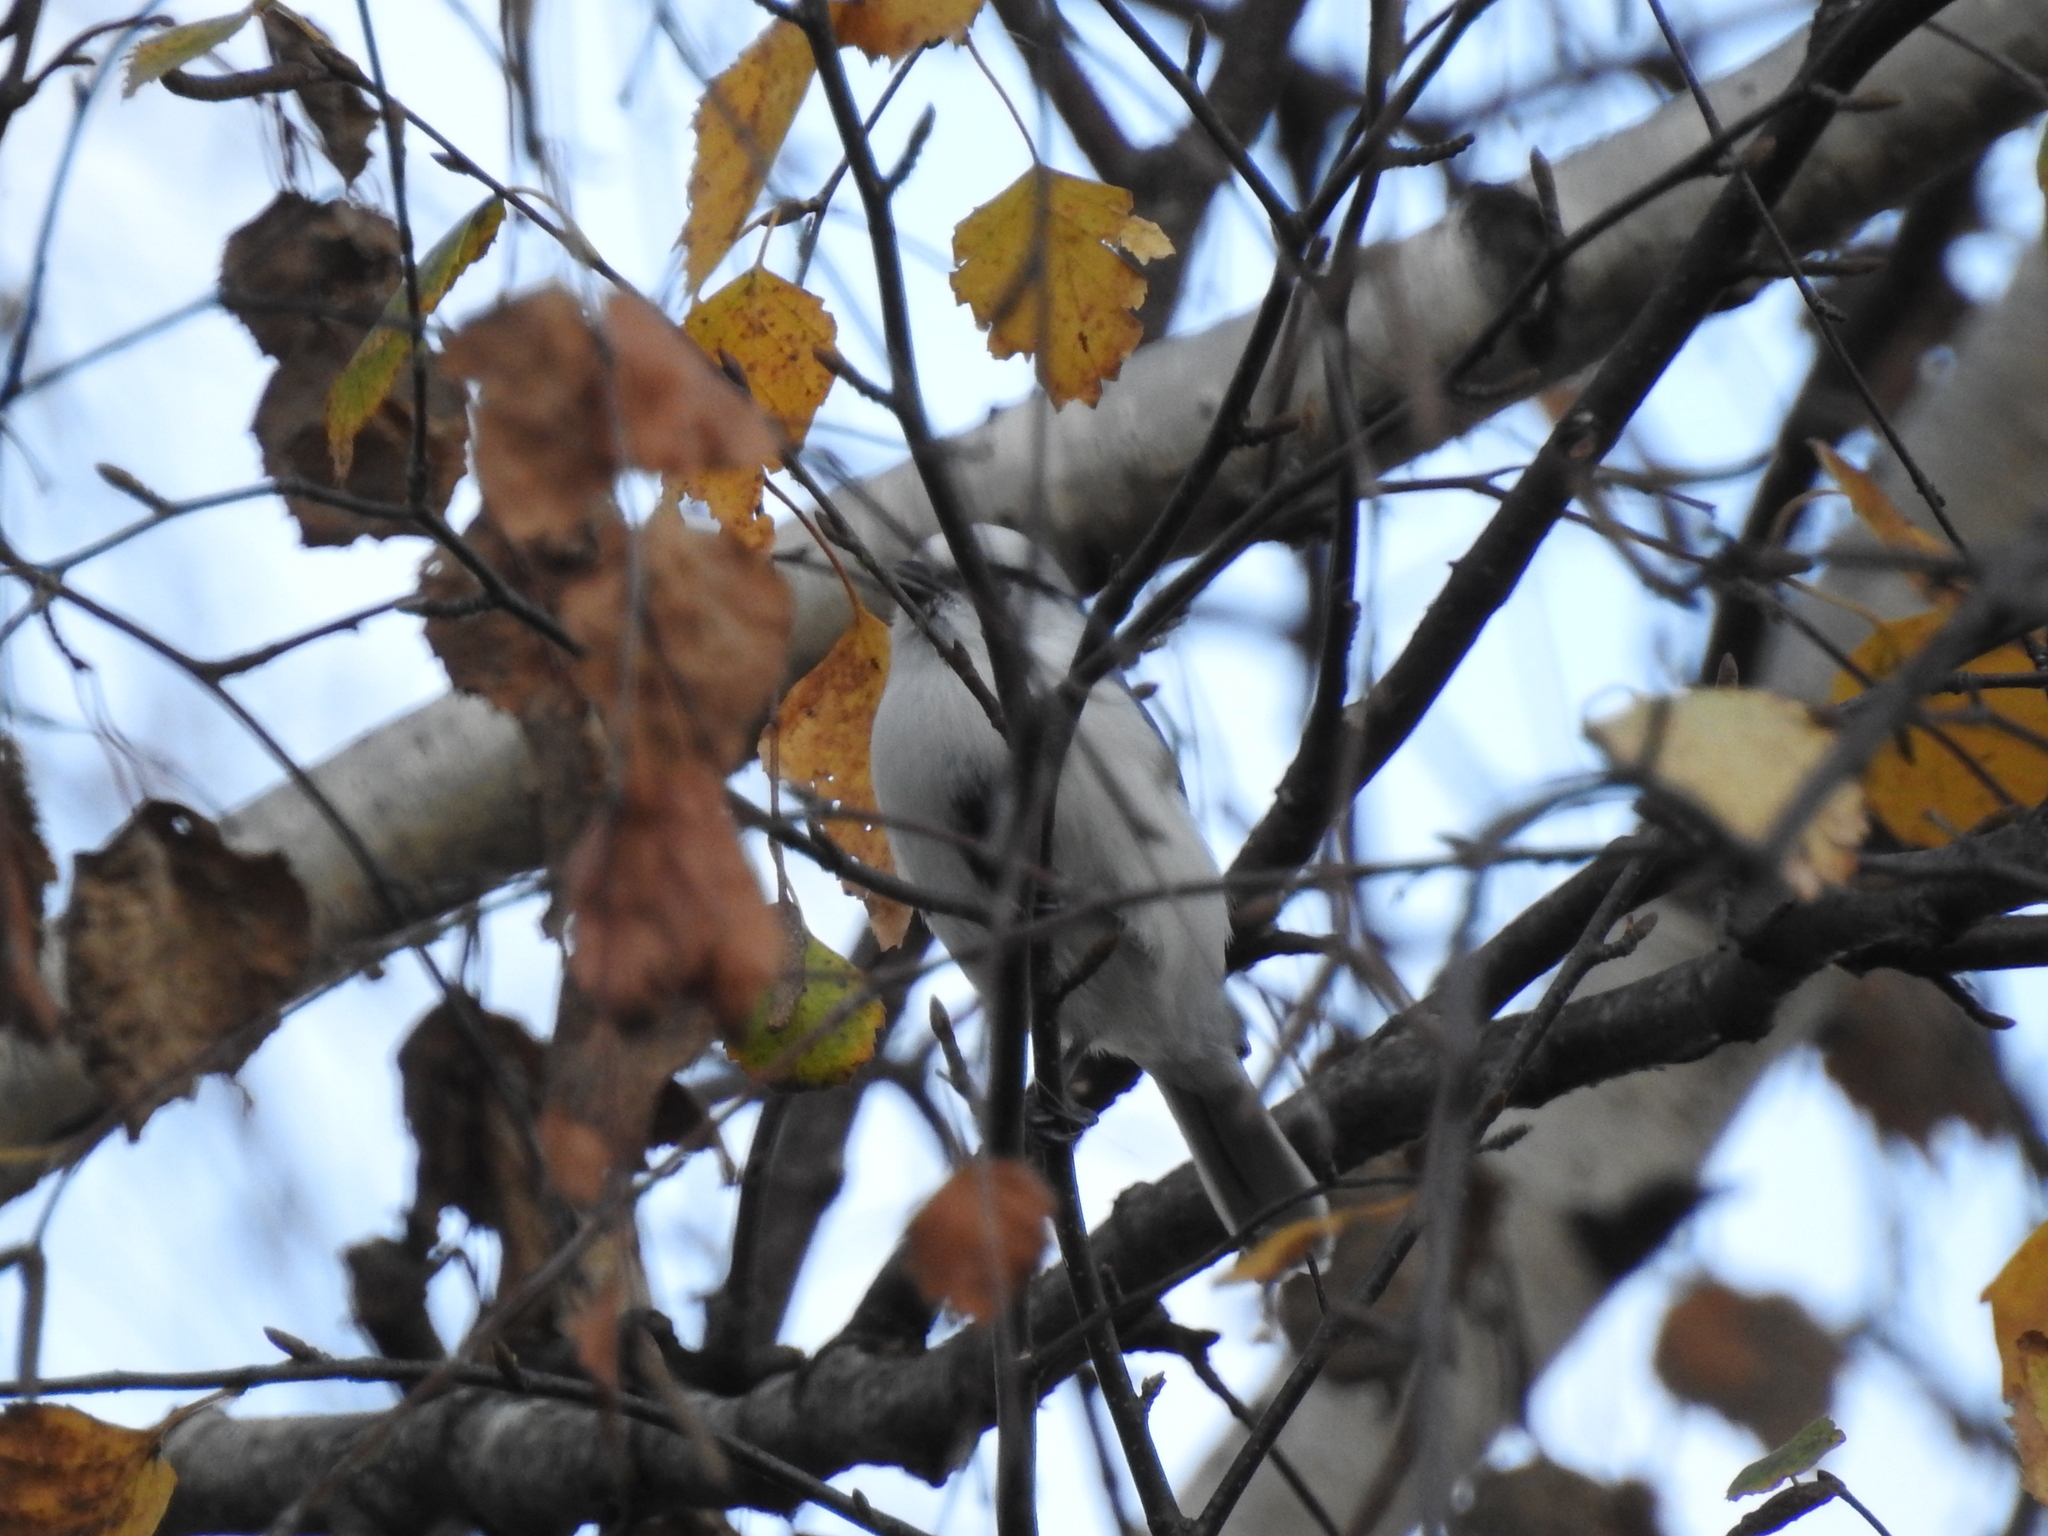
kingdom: Animalia
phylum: Chordata
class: Aves
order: Passeriformes
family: Paridae
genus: Cyanistes
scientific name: Cyanistes cyanus
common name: Azure tit
